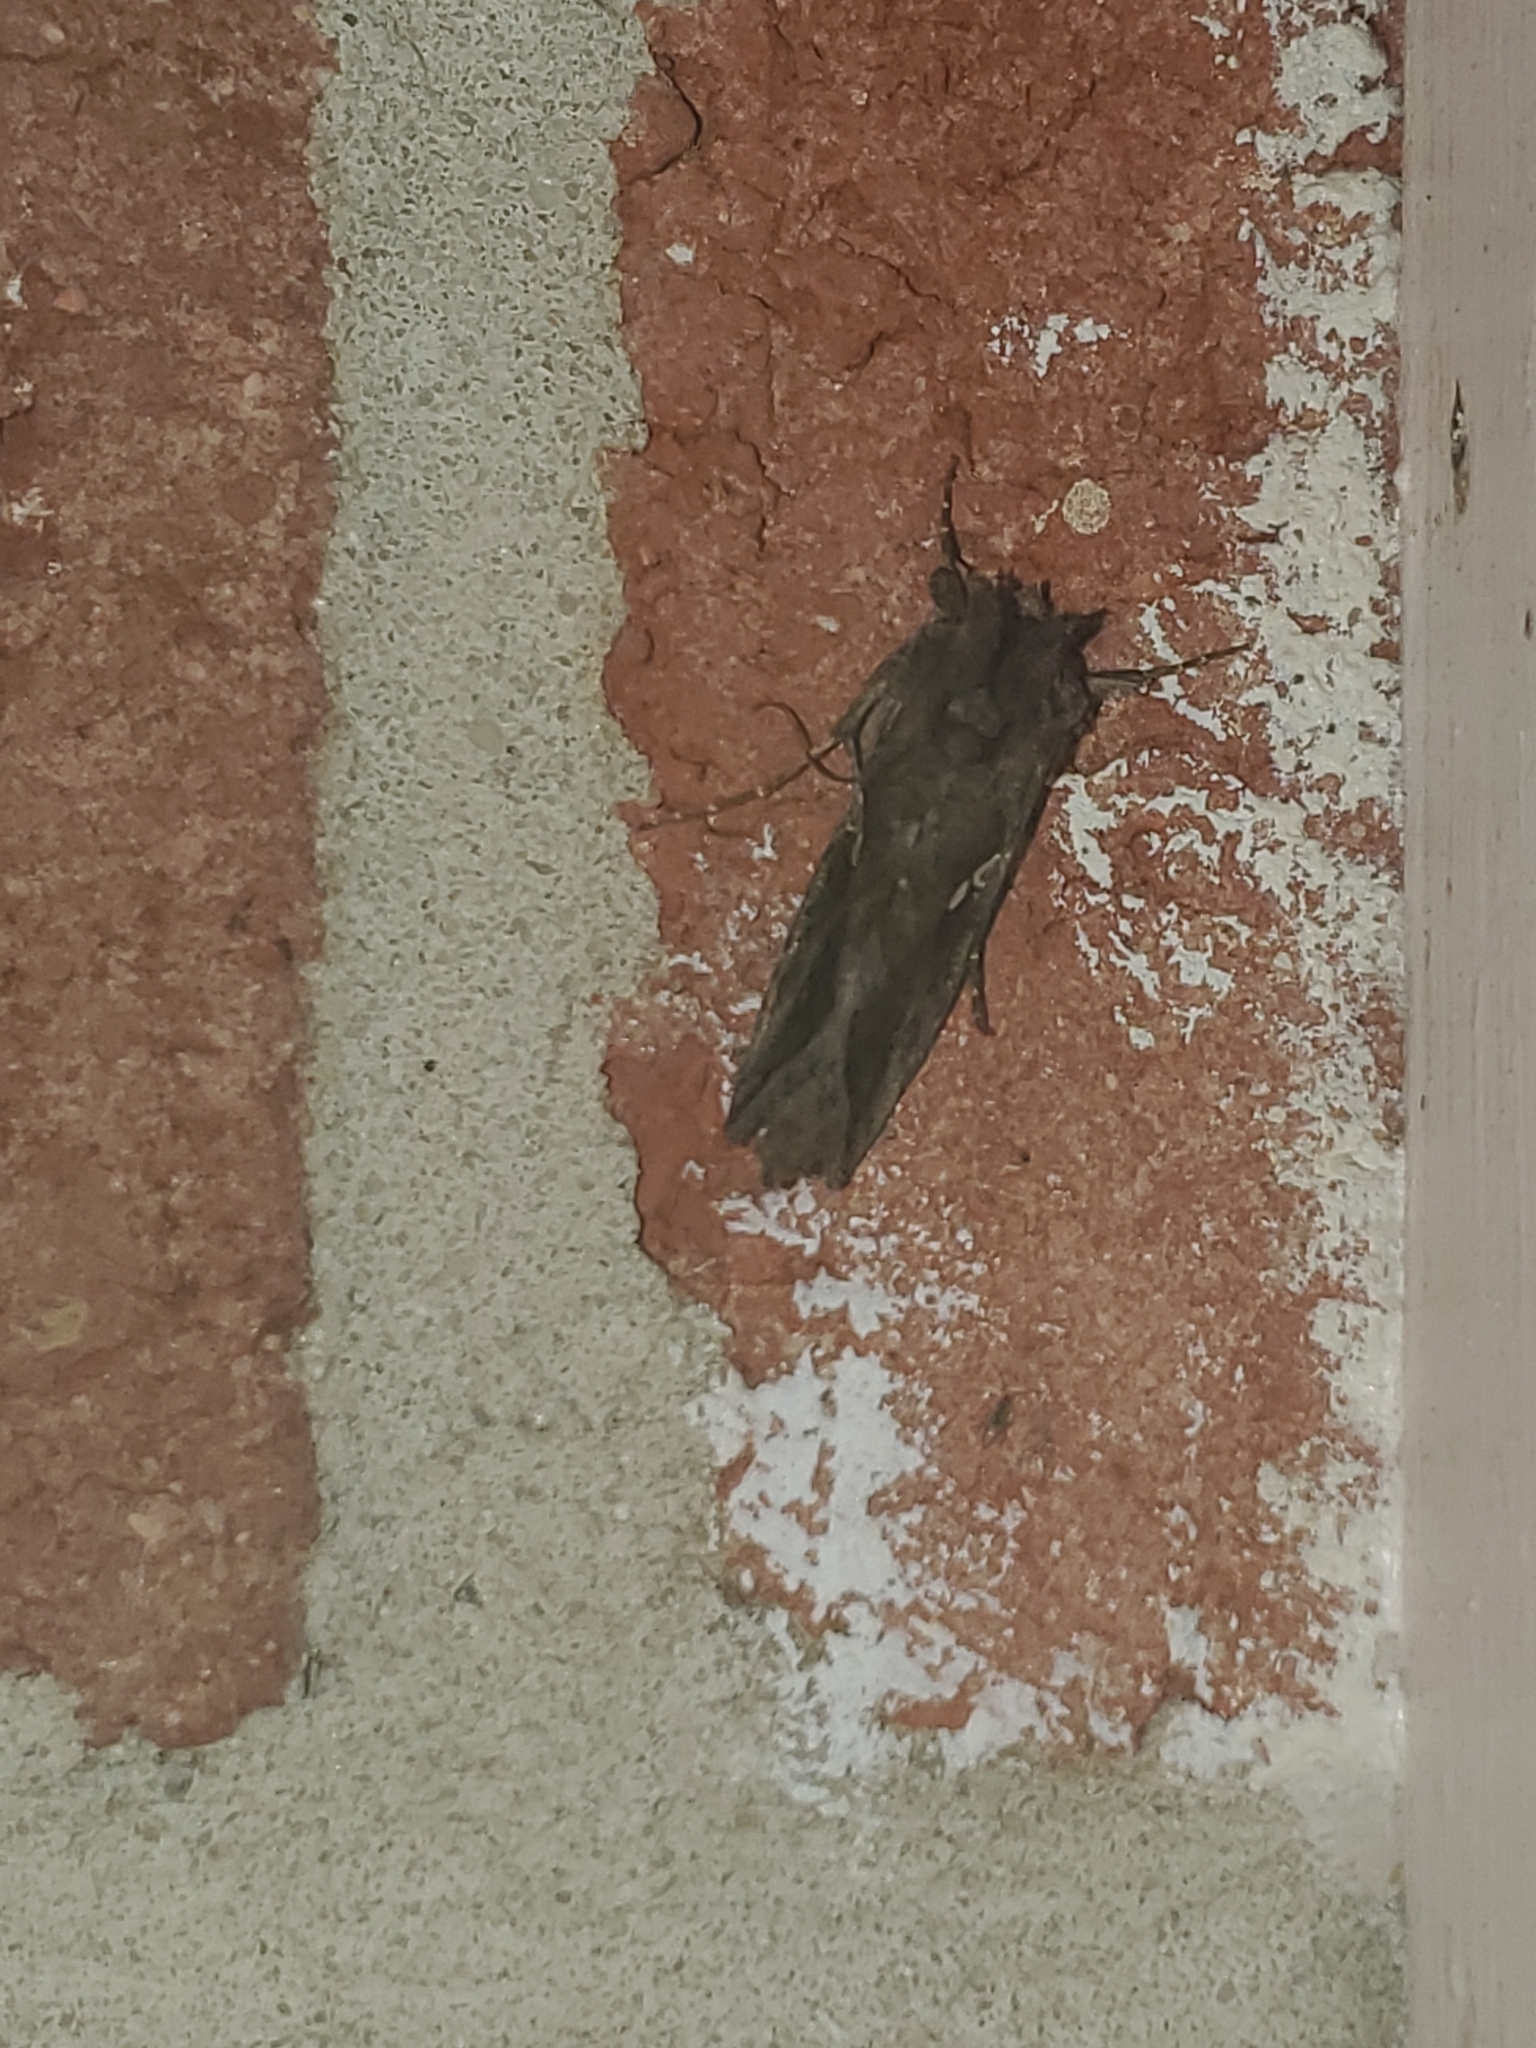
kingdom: Animalia
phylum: Arthropoda
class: Insecta
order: Lepidoptera
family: Noctuidae
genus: Autographa
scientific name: Autographa precationis
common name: Common looper moth
